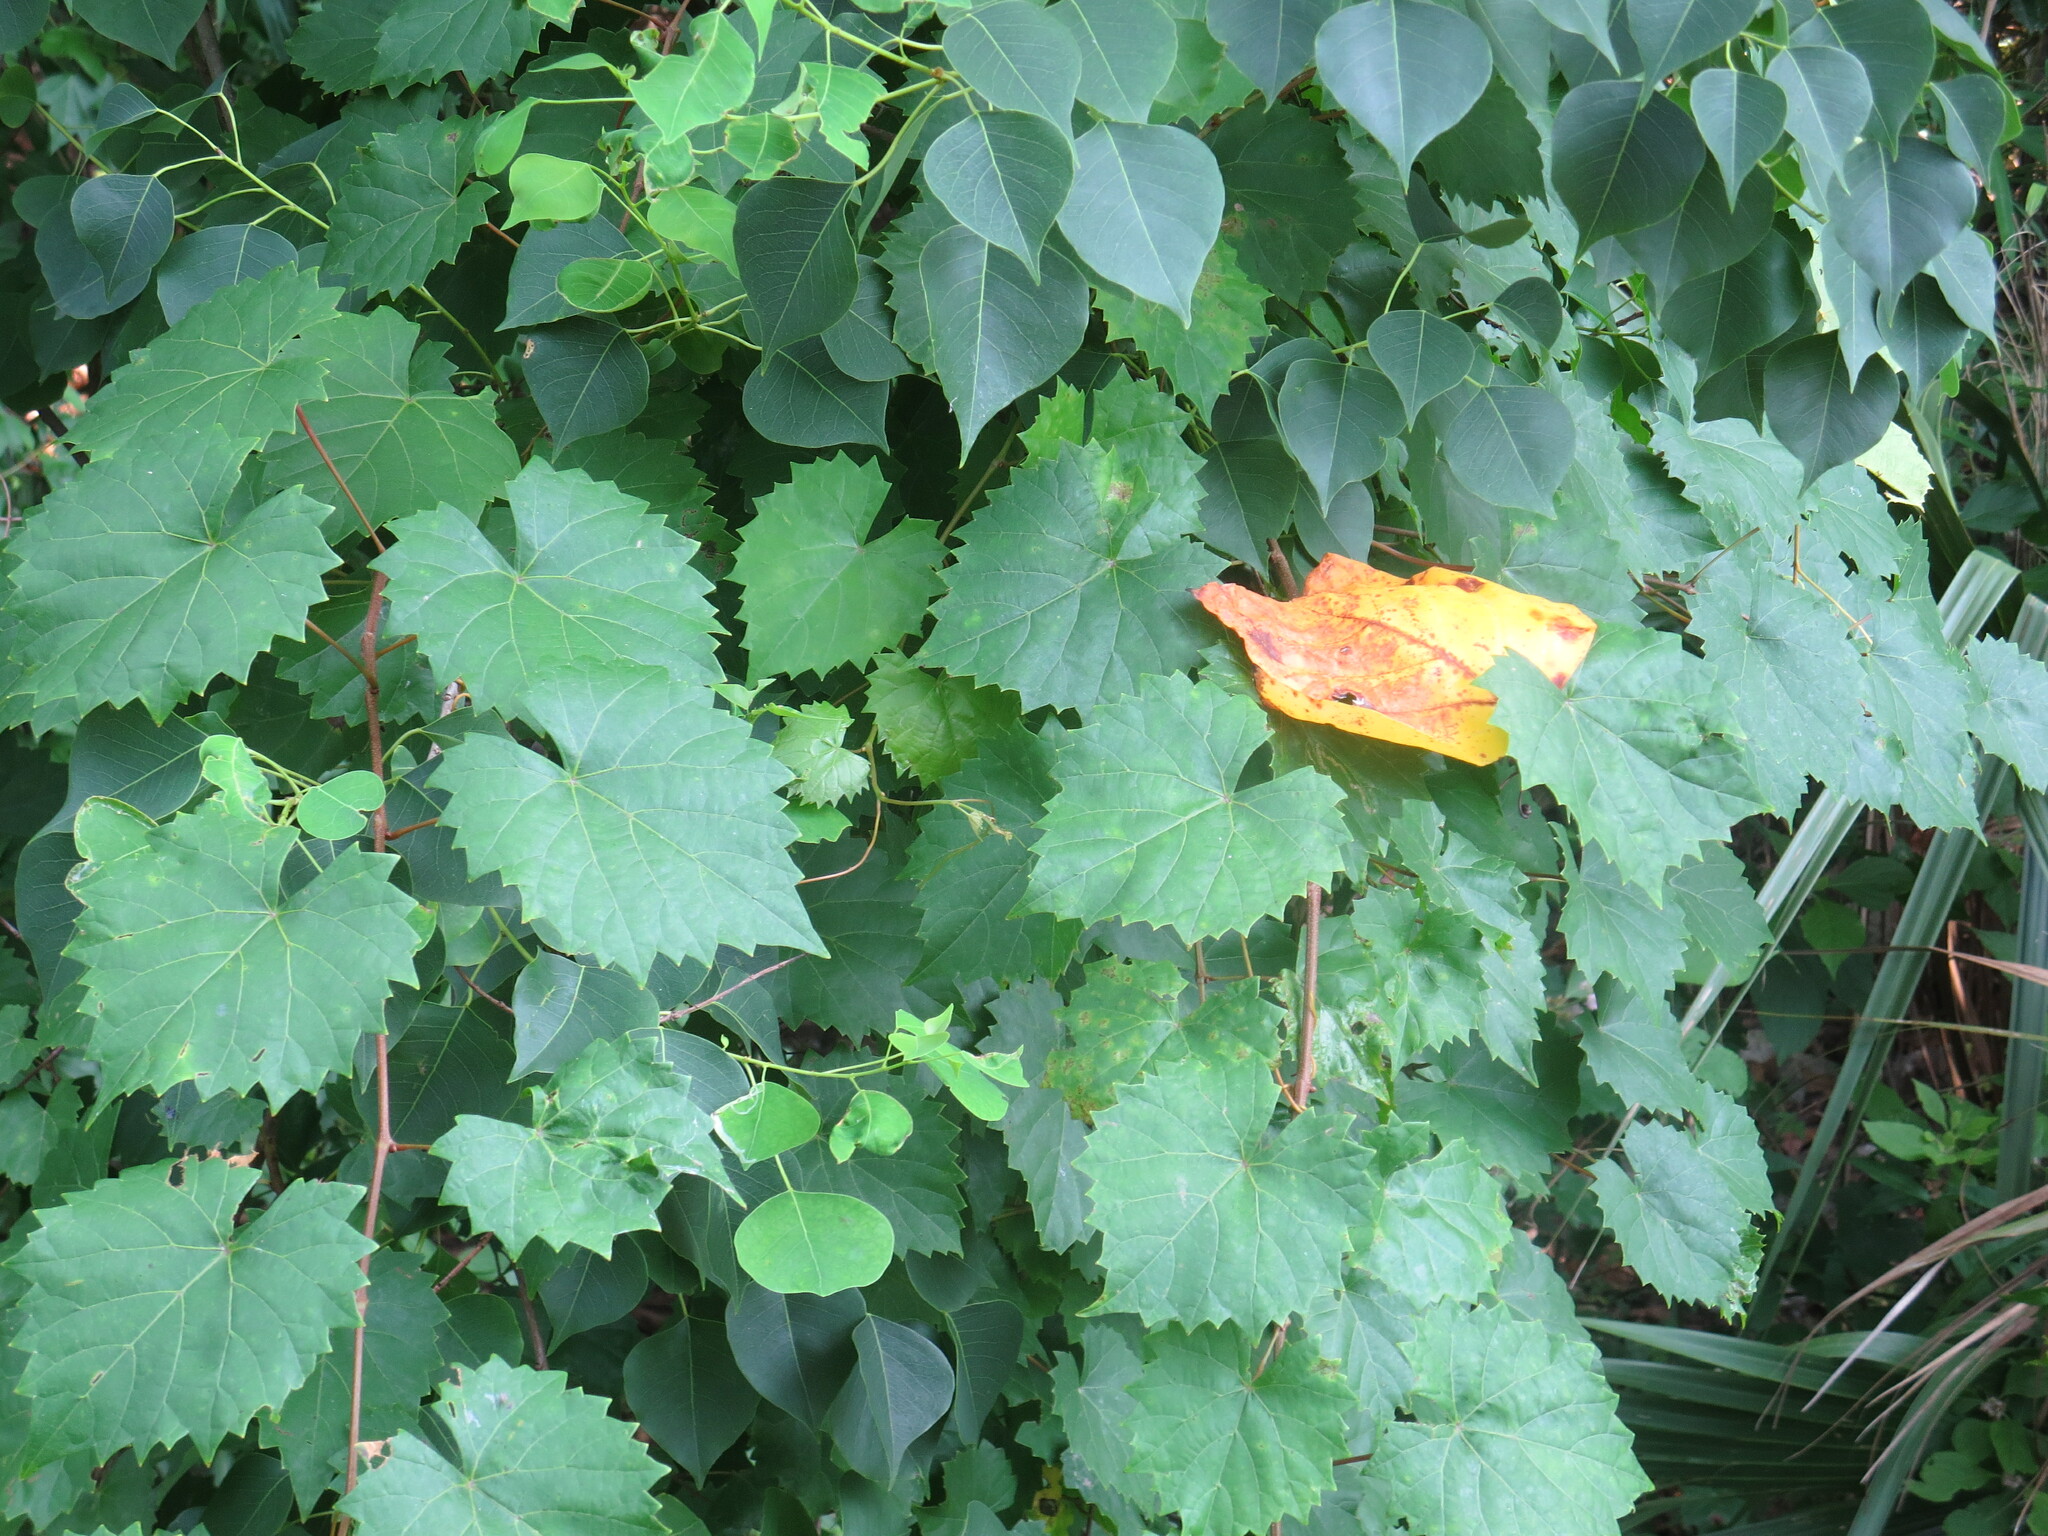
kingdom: Plantae
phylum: Tracheophyta
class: Magnoliopsida
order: Vitales
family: Vitaceae
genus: Vitis
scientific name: Vitis rotundifolia
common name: Muscadine grape
